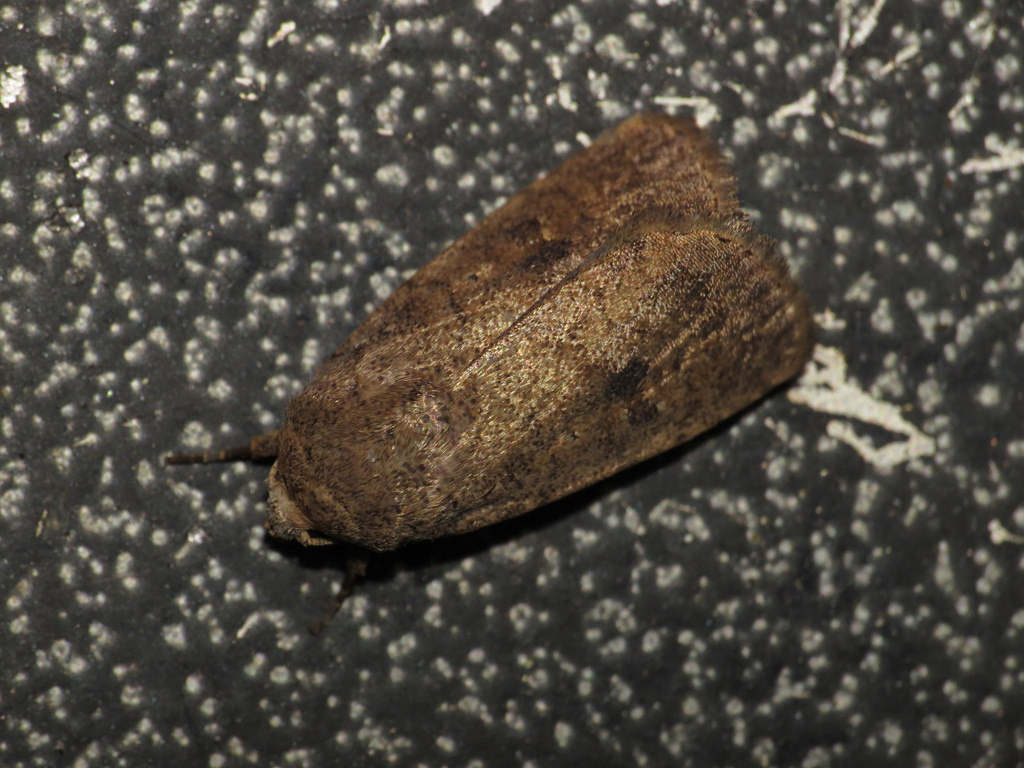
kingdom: Animalia
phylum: Arthropoda
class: Insecta
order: Lepidoptera
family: Noctuidae
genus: Athetis
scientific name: Athetis reclusa
